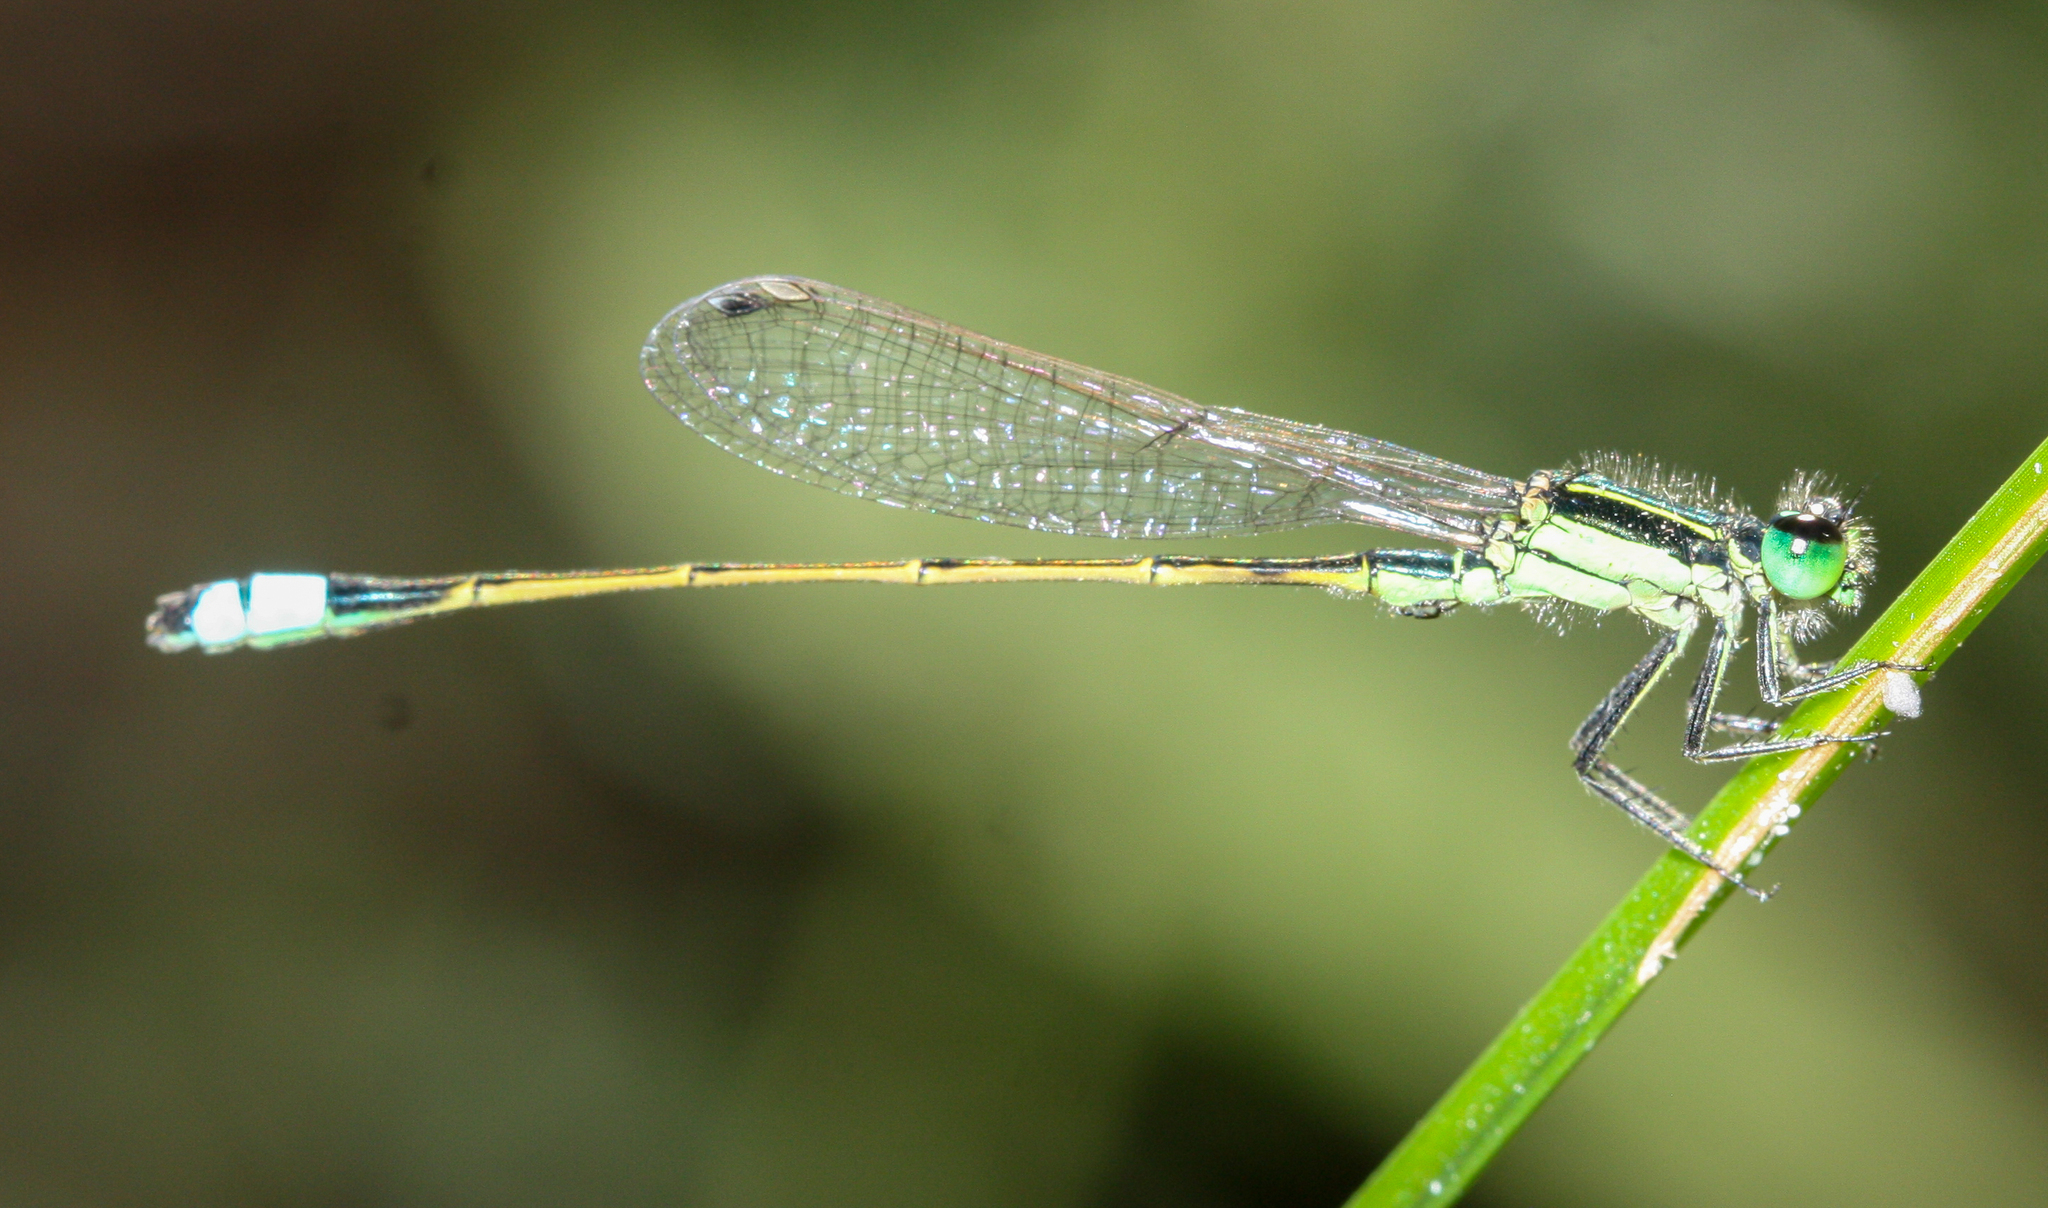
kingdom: Animalia
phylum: Arthropoda
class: Insecta
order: Odonata
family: Coenagrionidae
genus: Ischnura
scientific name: Ischnura ramburii
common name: Rambur's forktail
